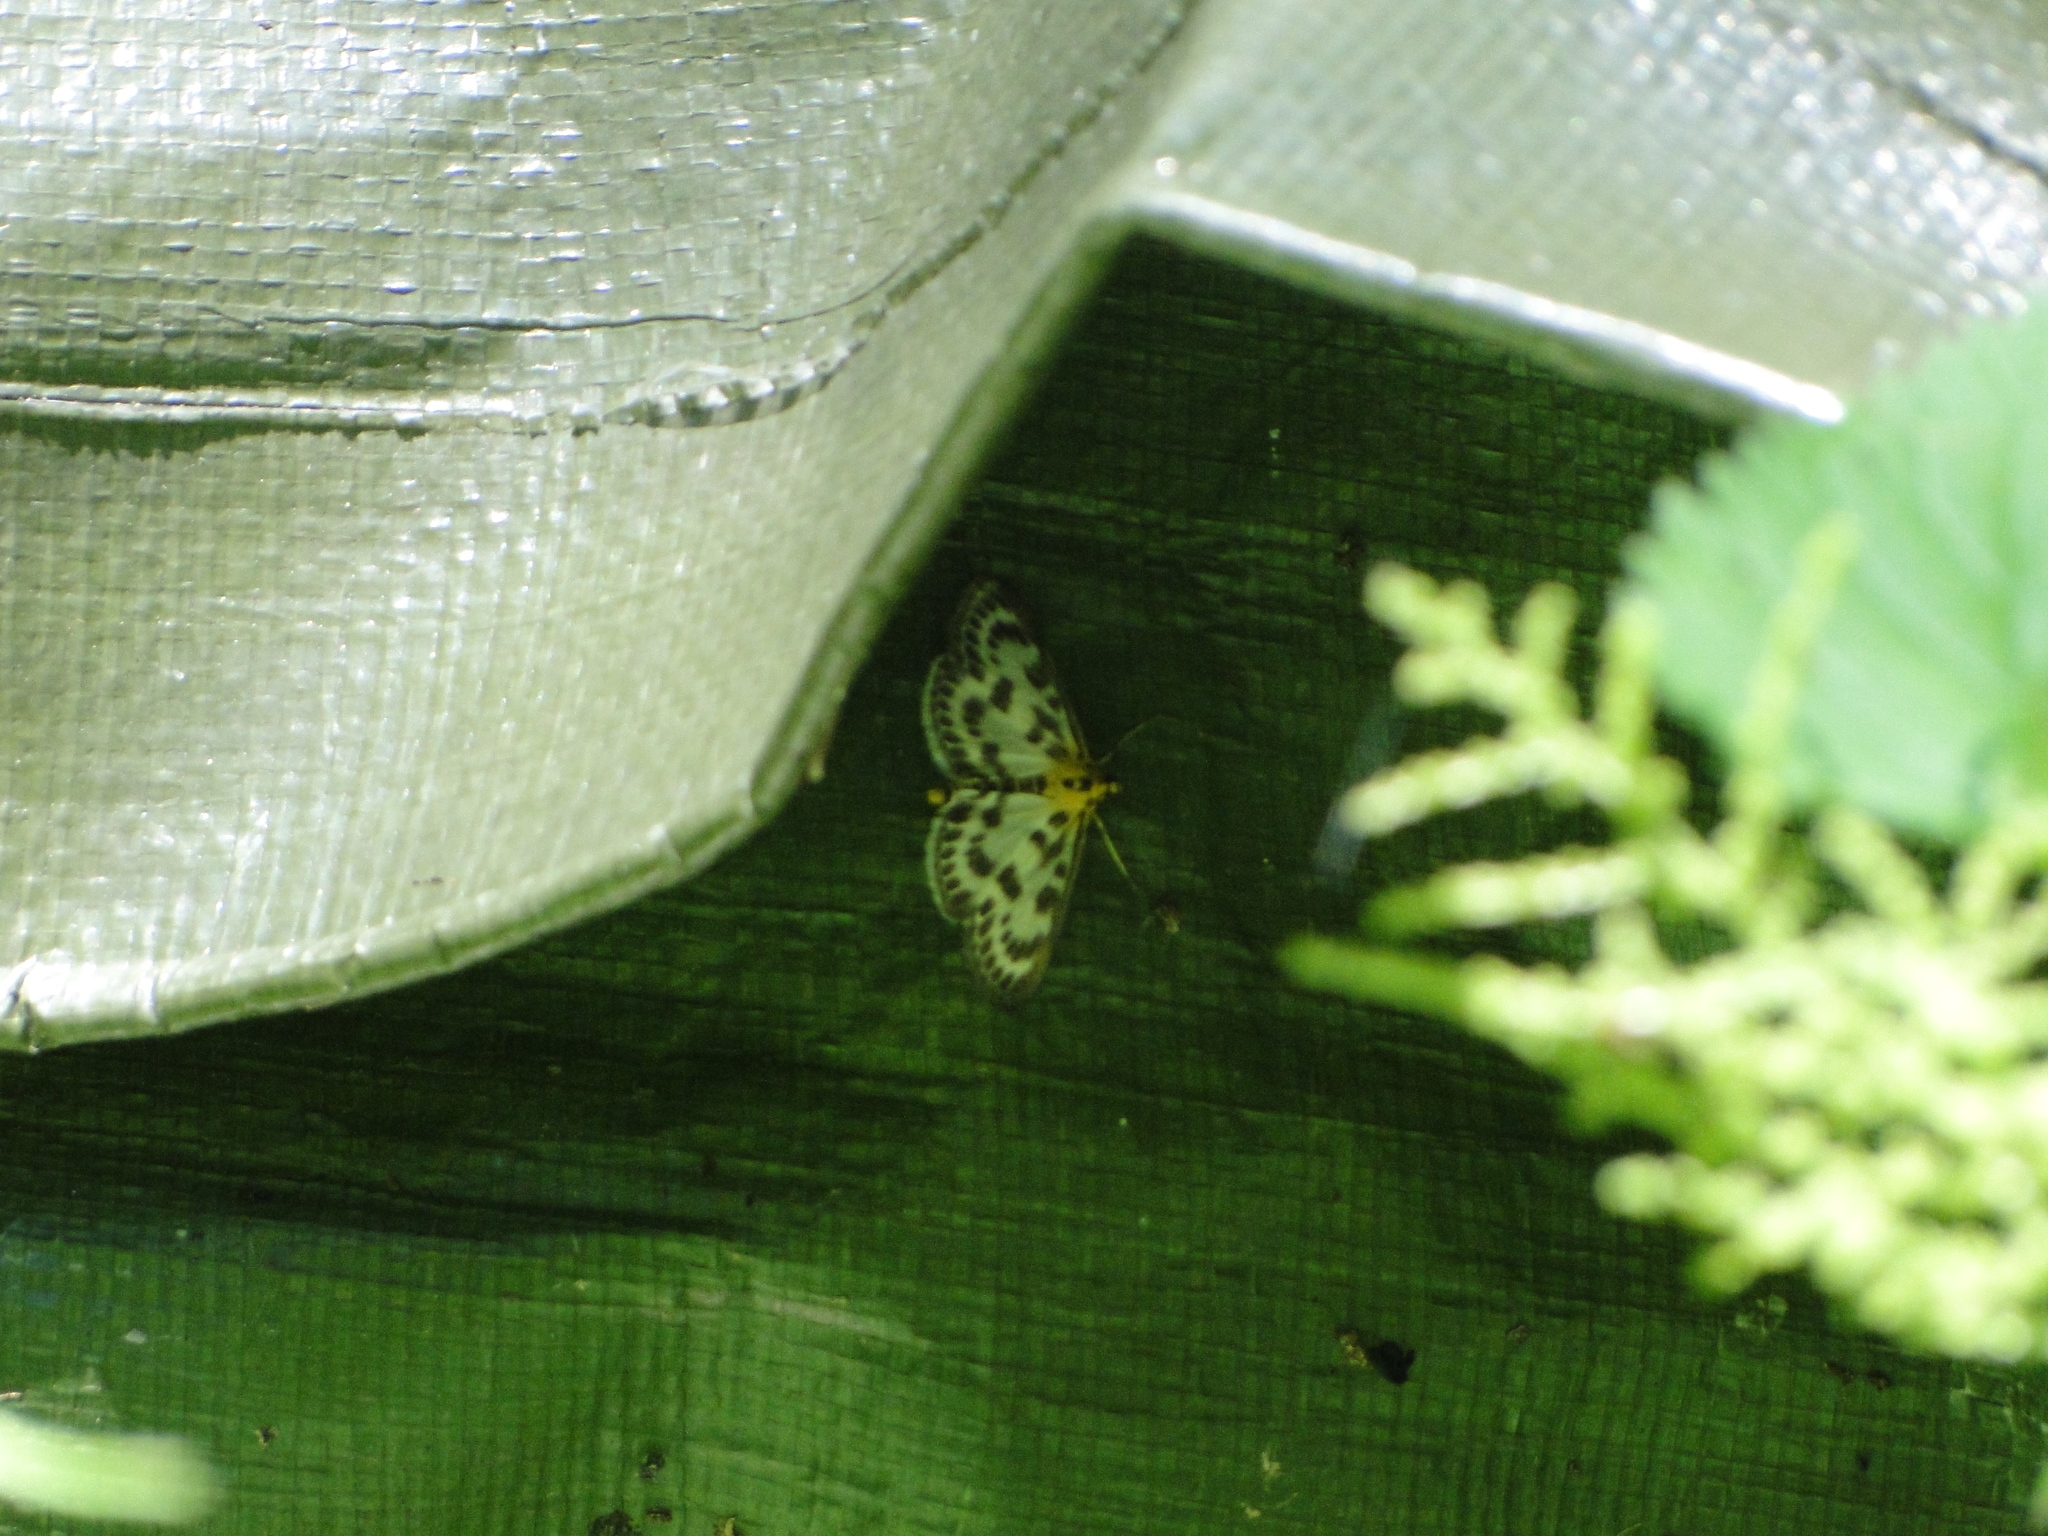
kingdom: Animalia
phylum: Arthropoda
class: Insecta
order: Lepidoptera
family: Crambidae
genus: Anania
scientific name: Anania hortulata
